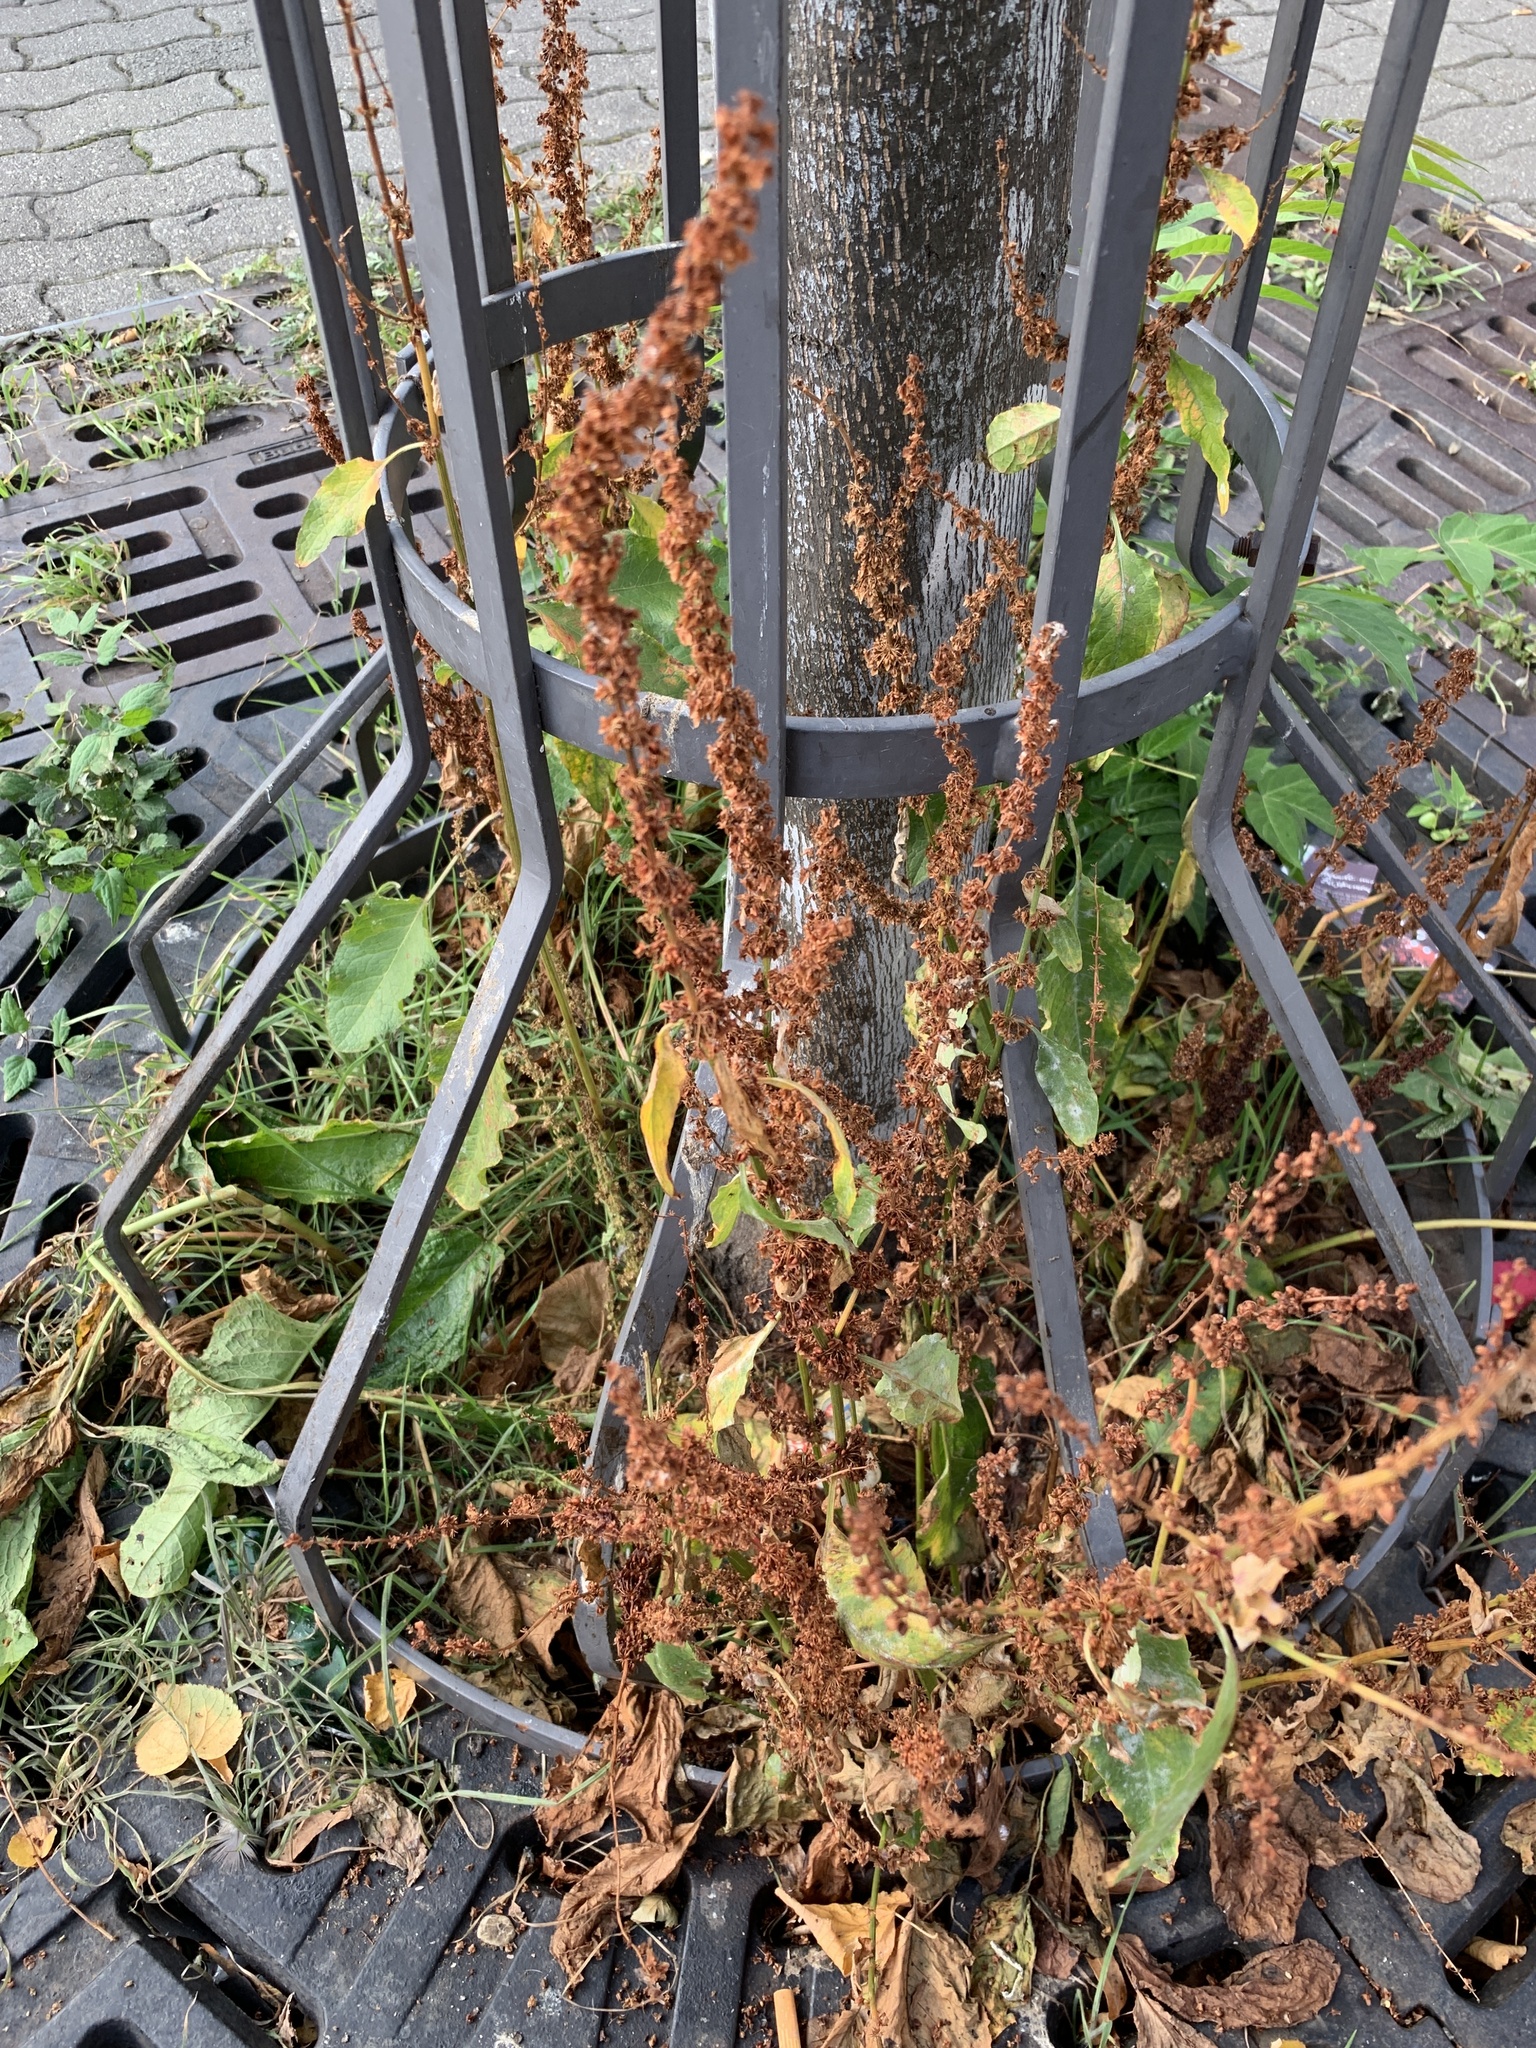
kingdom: Plantae
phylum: Tracheophyta
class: Magnoliopsida
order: Caryophyllales
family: Polygonaceae
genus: Rumex
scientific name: Rumex obtusifolius
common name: Bitter dock
